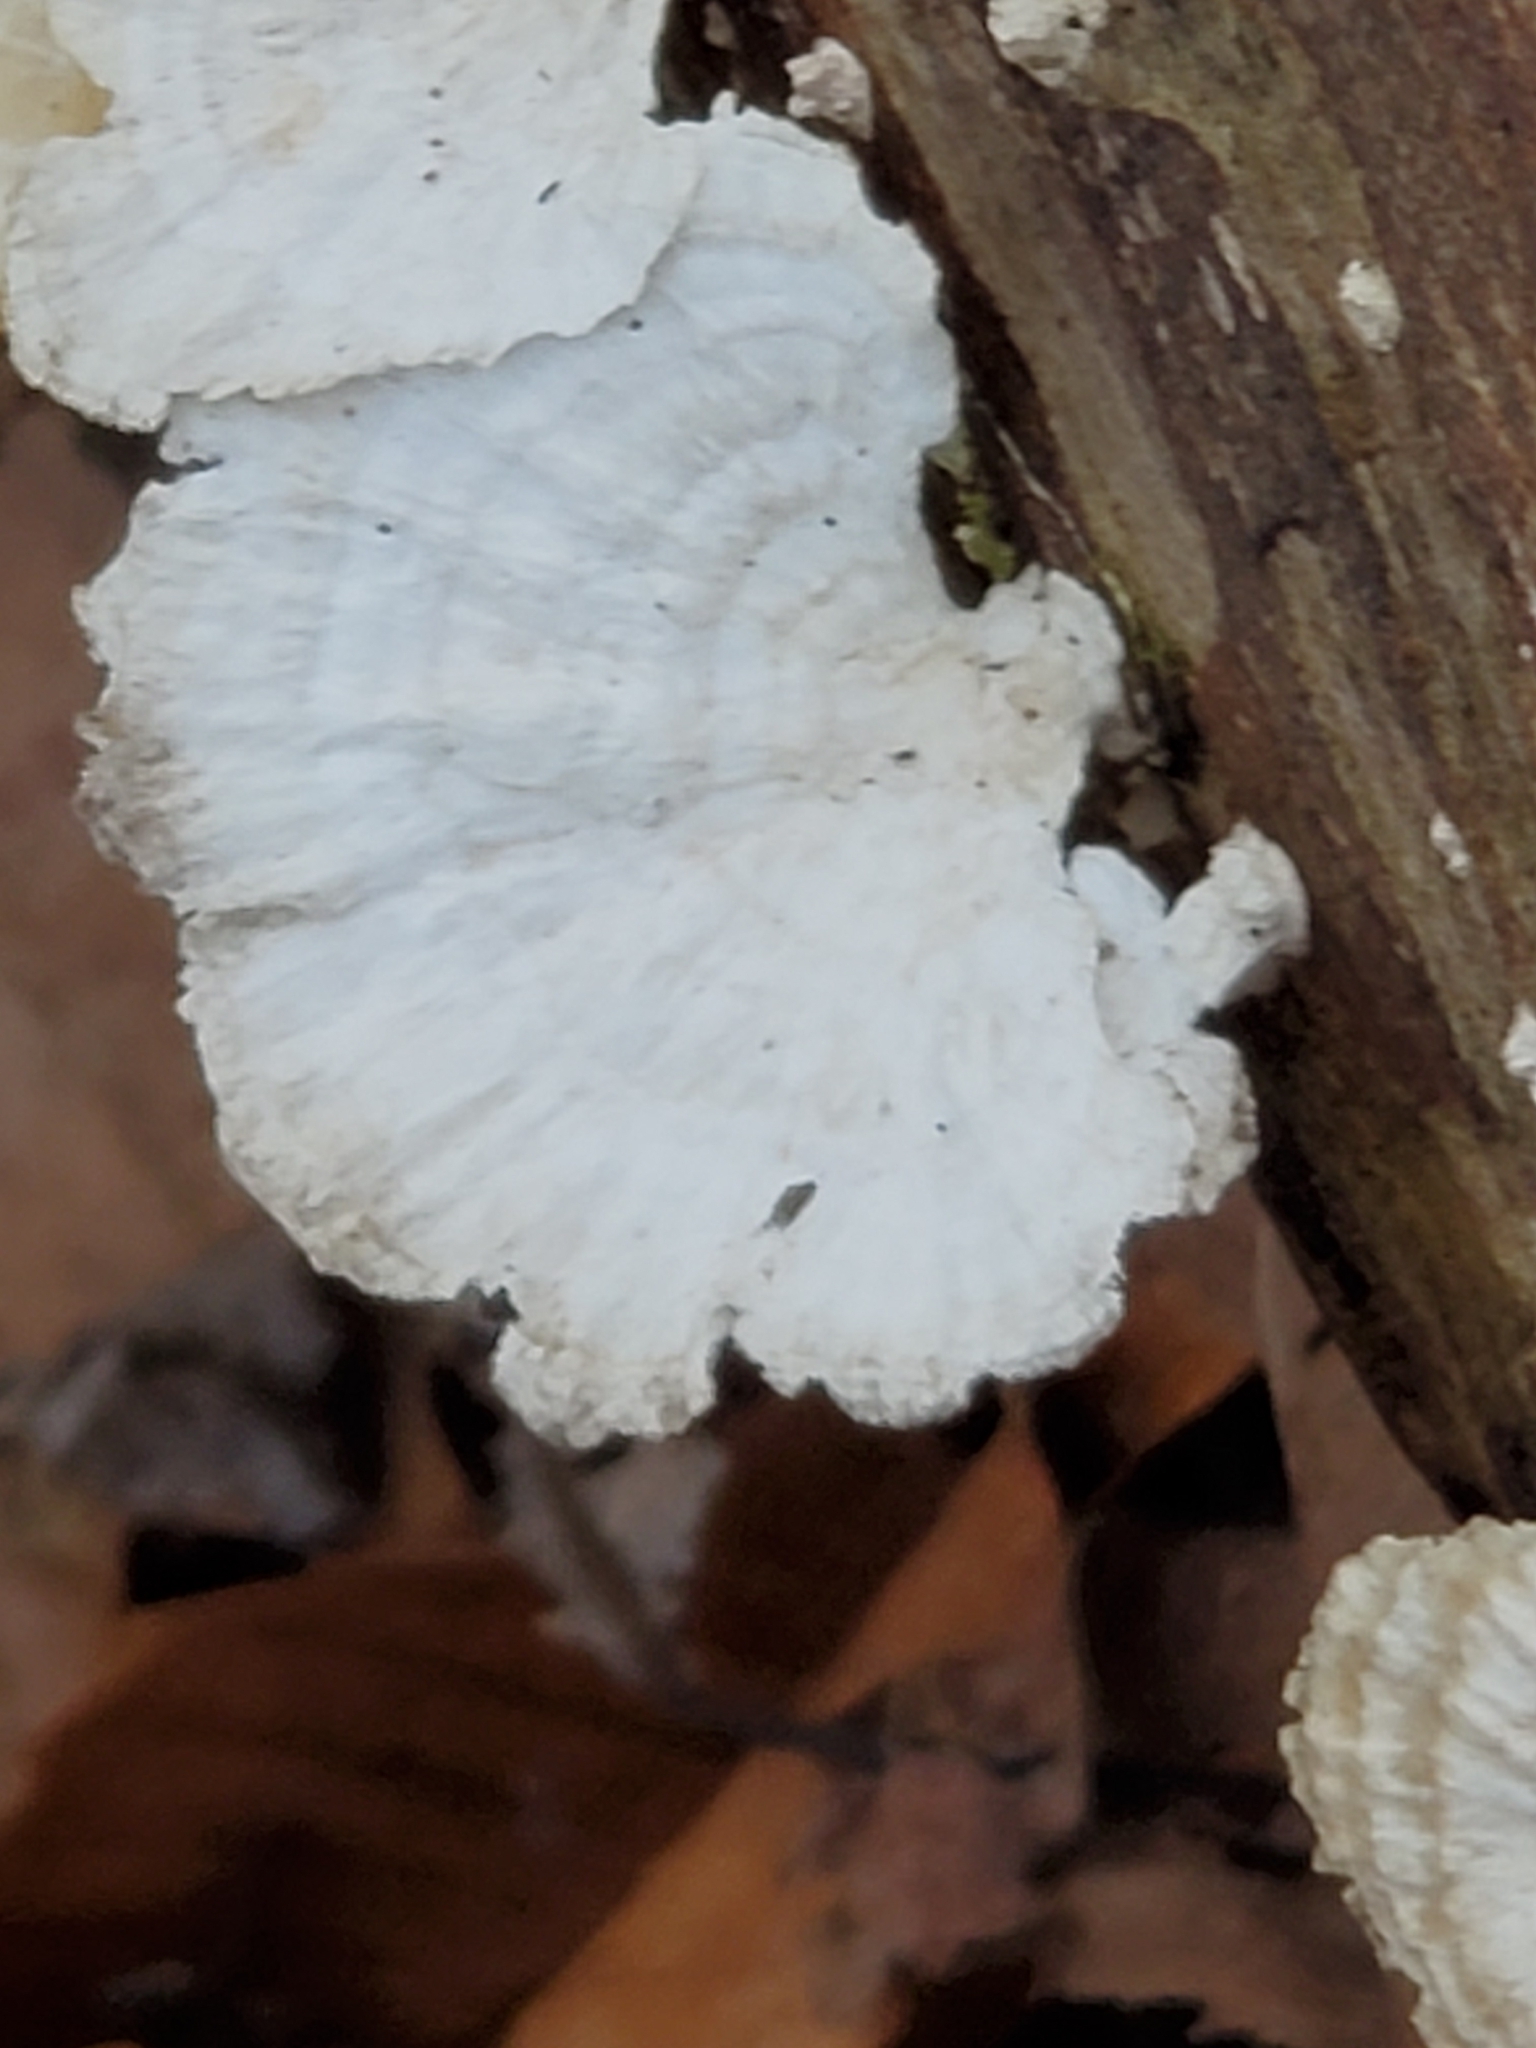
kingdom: Fungi
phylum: Basidiomycota
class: Agaricomycetes
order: Polyporales
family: Polyporaceae
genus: Trametes
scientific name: Trametes pubescens
